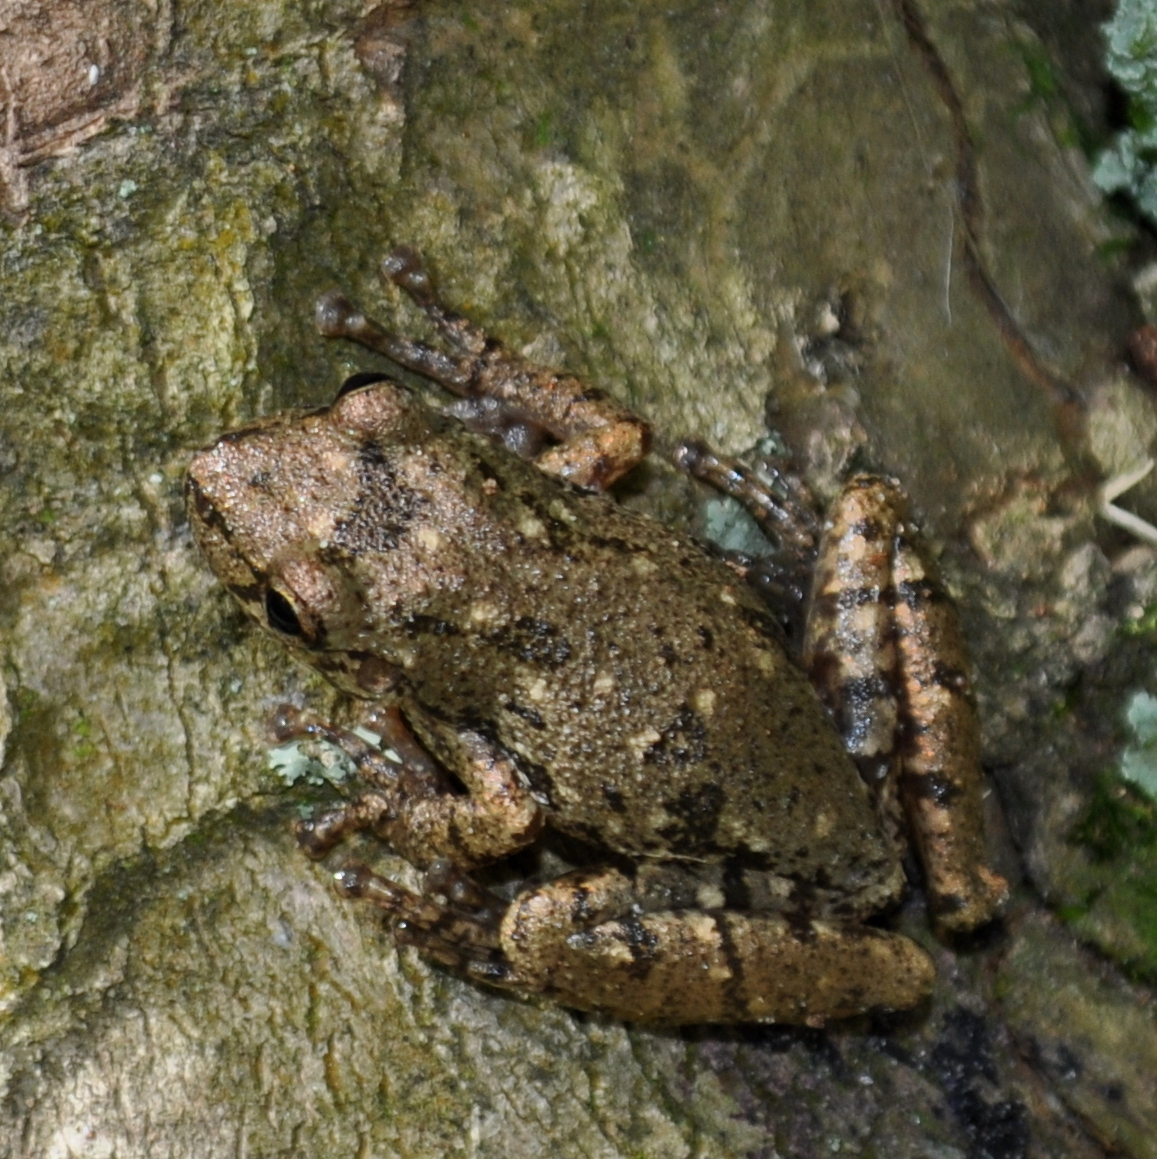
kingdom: Animalia
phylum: Chordata
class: Amphibia
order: Anura
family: Hylidae
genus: Scinax
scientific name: Scinax granulatus
